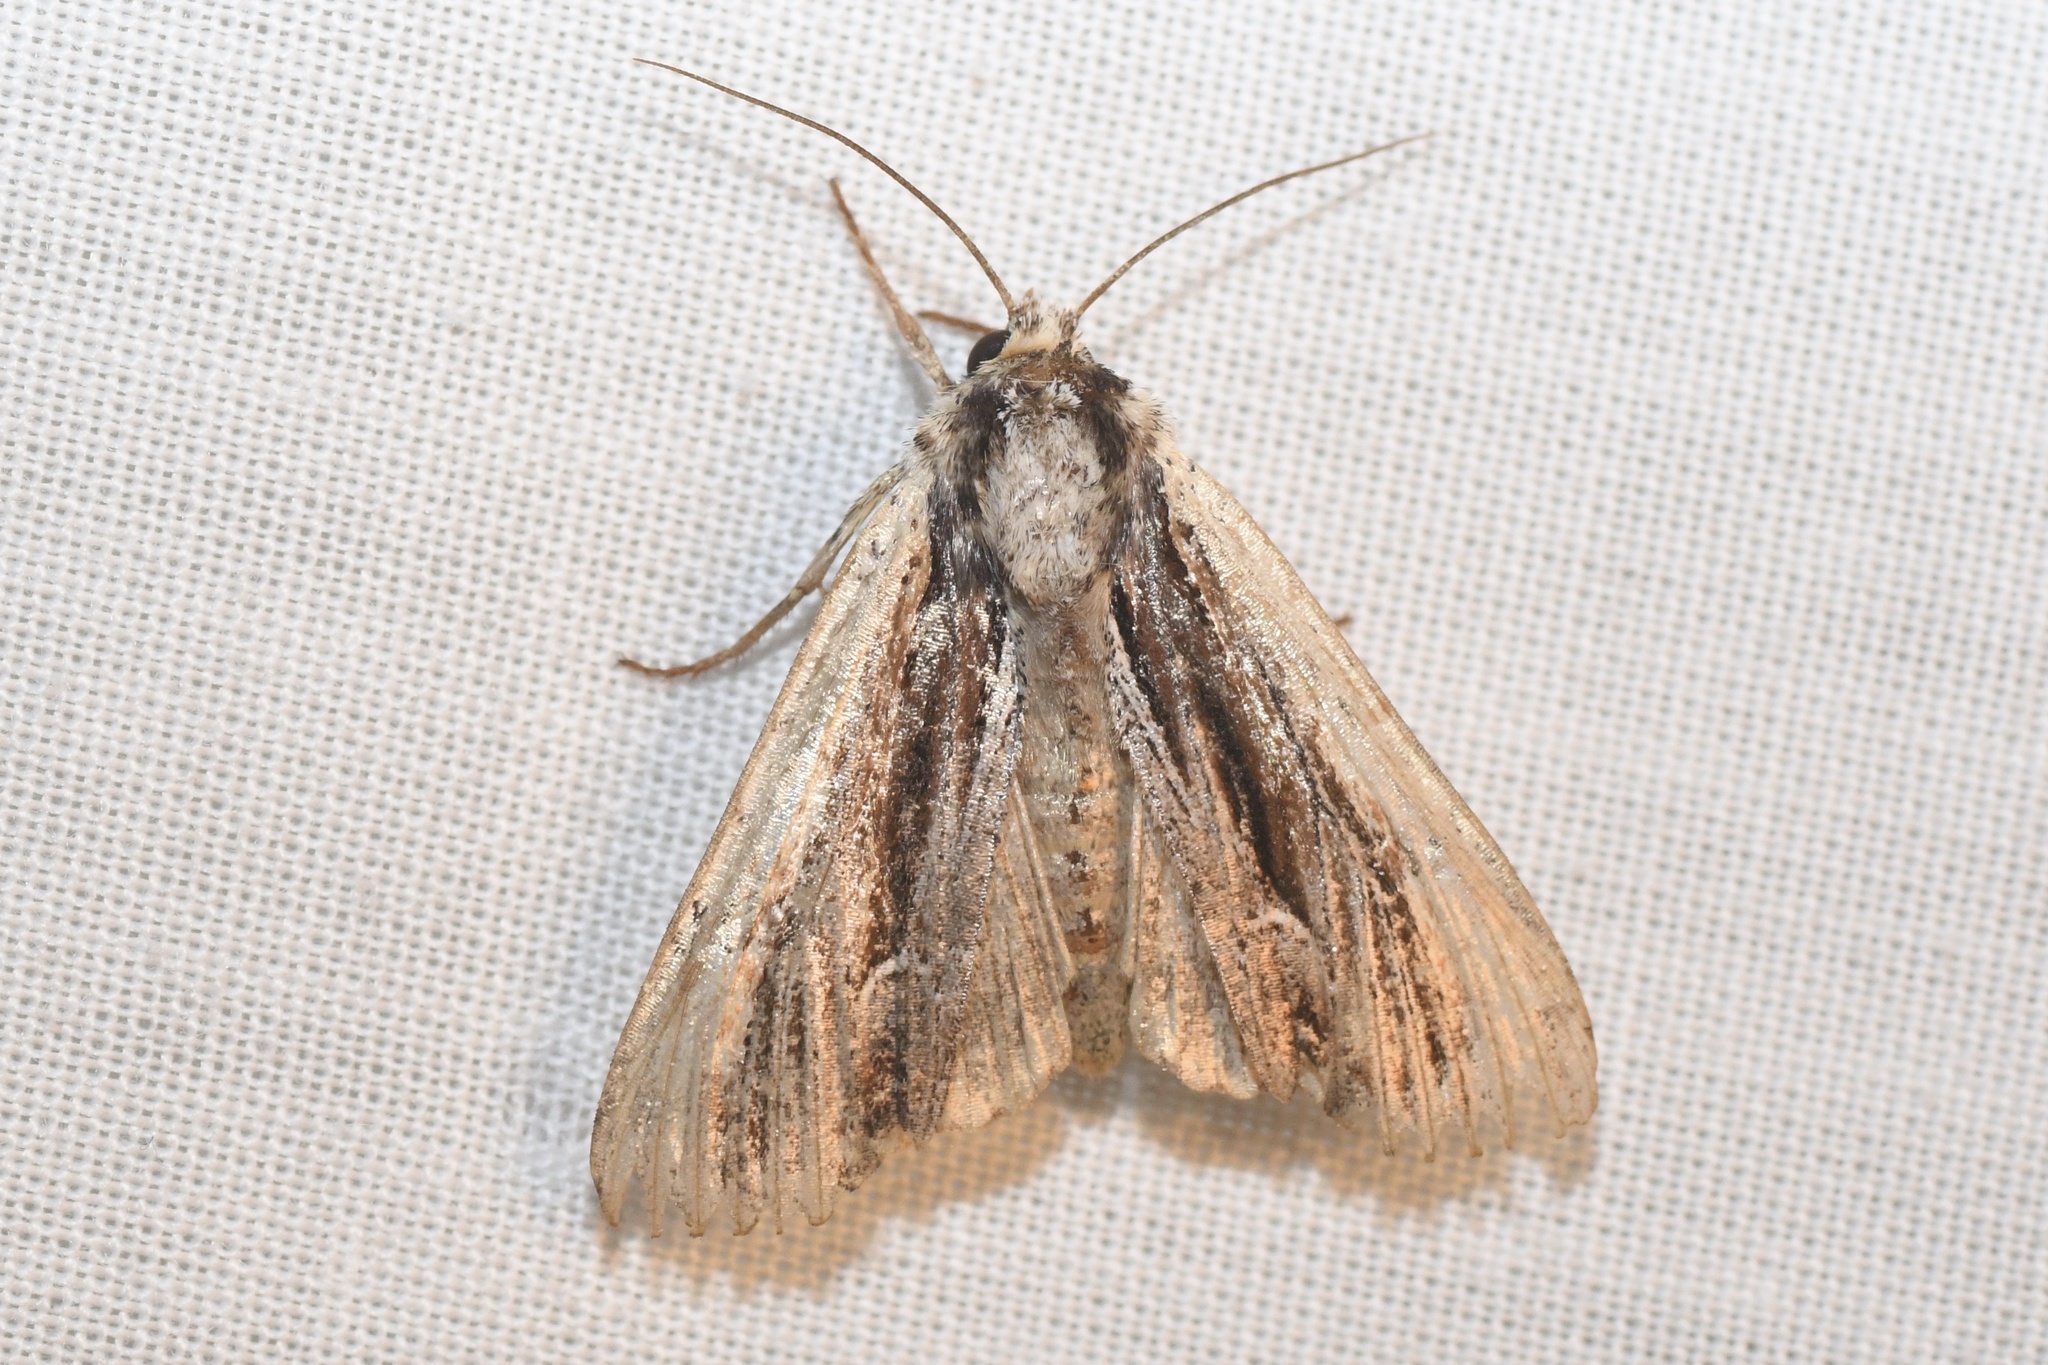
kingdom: Animalia
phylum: Arthropoda
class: Insecta
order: Lepidoptera
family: Noctuidae
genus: Apamea
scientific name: Apamea verbascoides
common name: Mullein apamea moth
